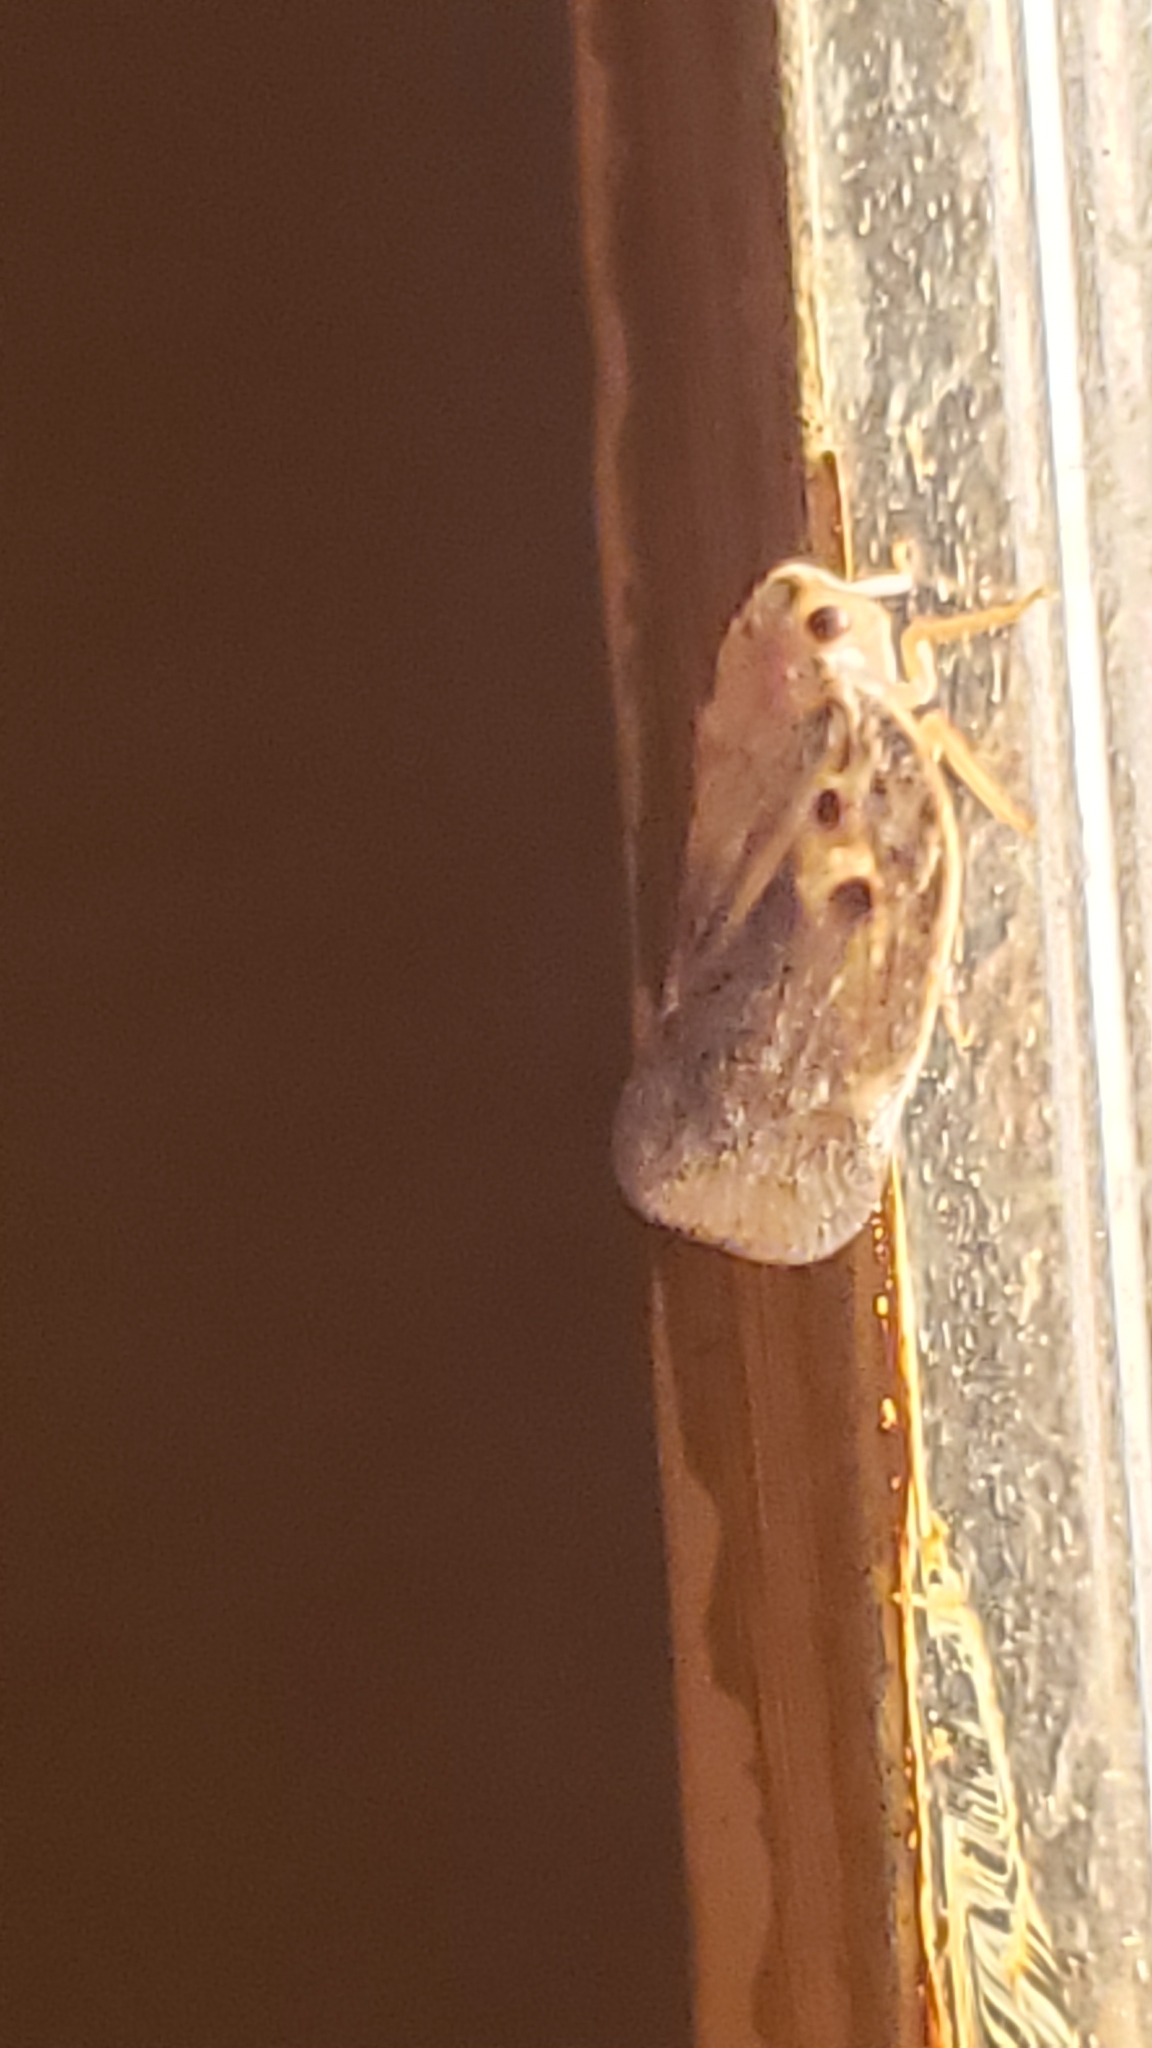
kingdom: Animalia
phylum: Arthropoda
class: Insecta
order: Hemiptera
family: Flatidae
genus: Metcalfa
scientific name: Metcalfa pruinosa
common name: Citrus flatid planthopper
